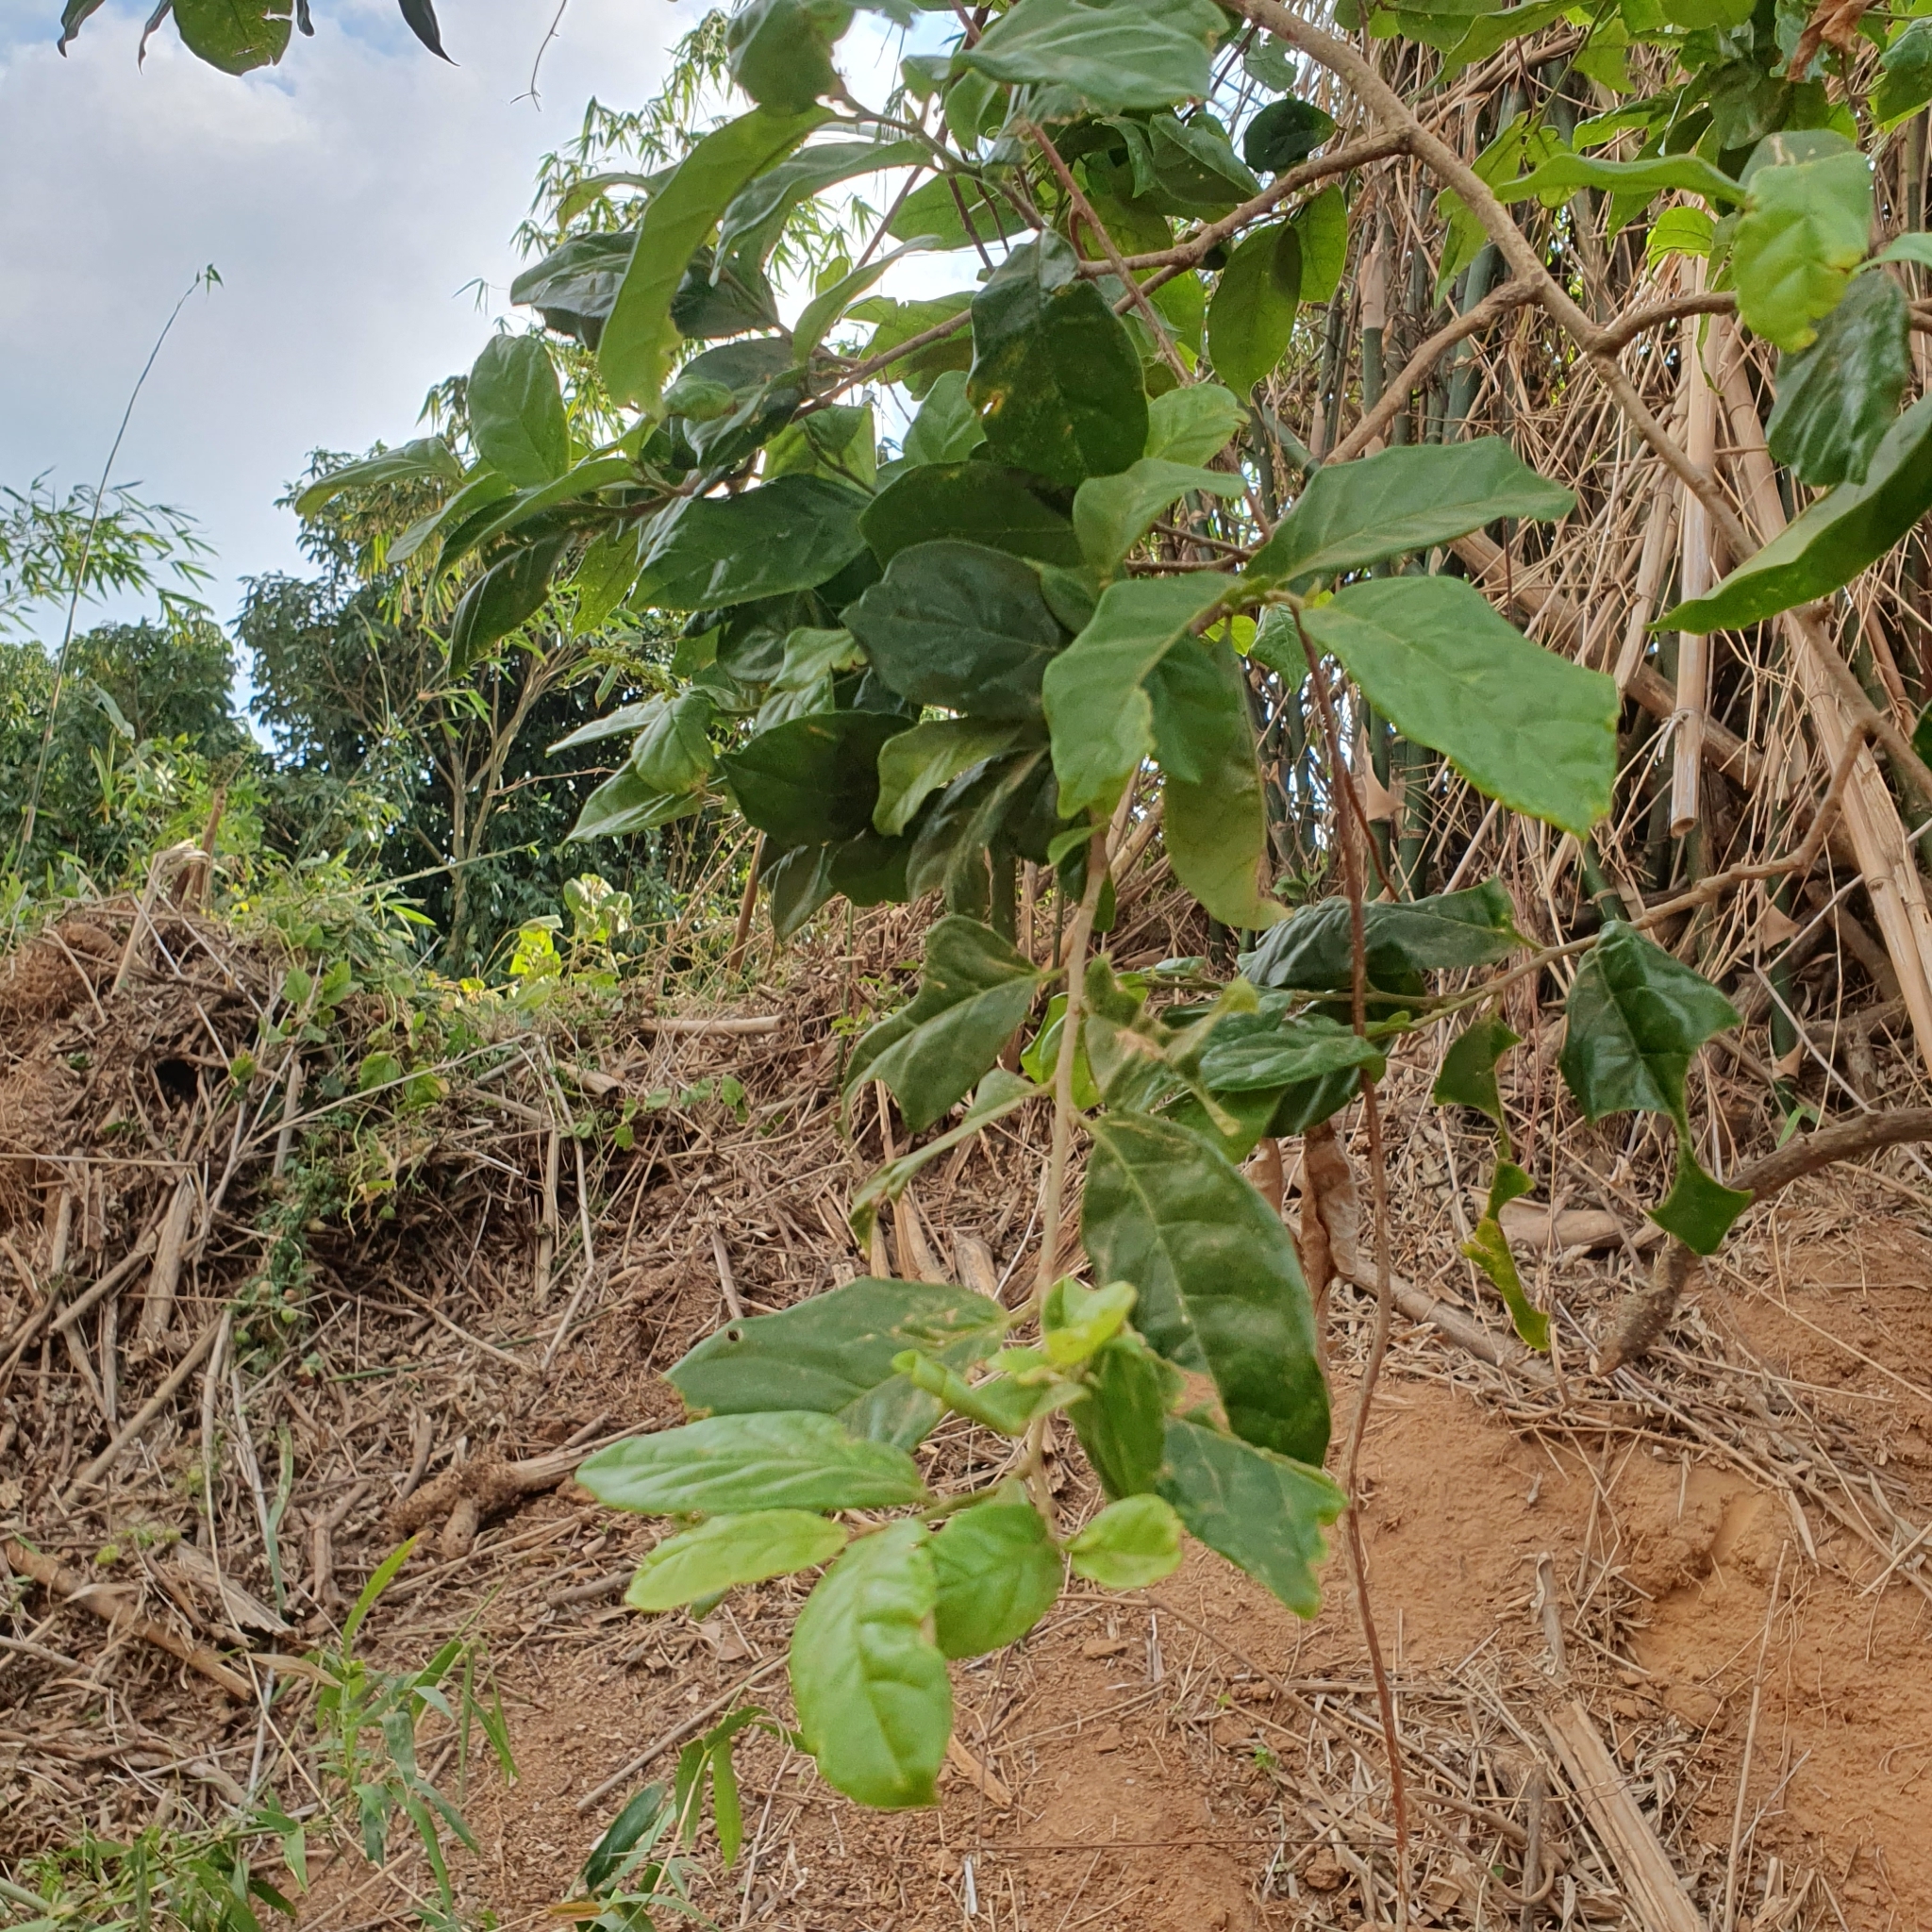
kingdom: Plantae
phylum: Tracheophyta
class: Magnoliopsida
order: Malpighiales
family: Phyllanthaceae
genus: Antidesma
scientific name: Antidesma montanum
